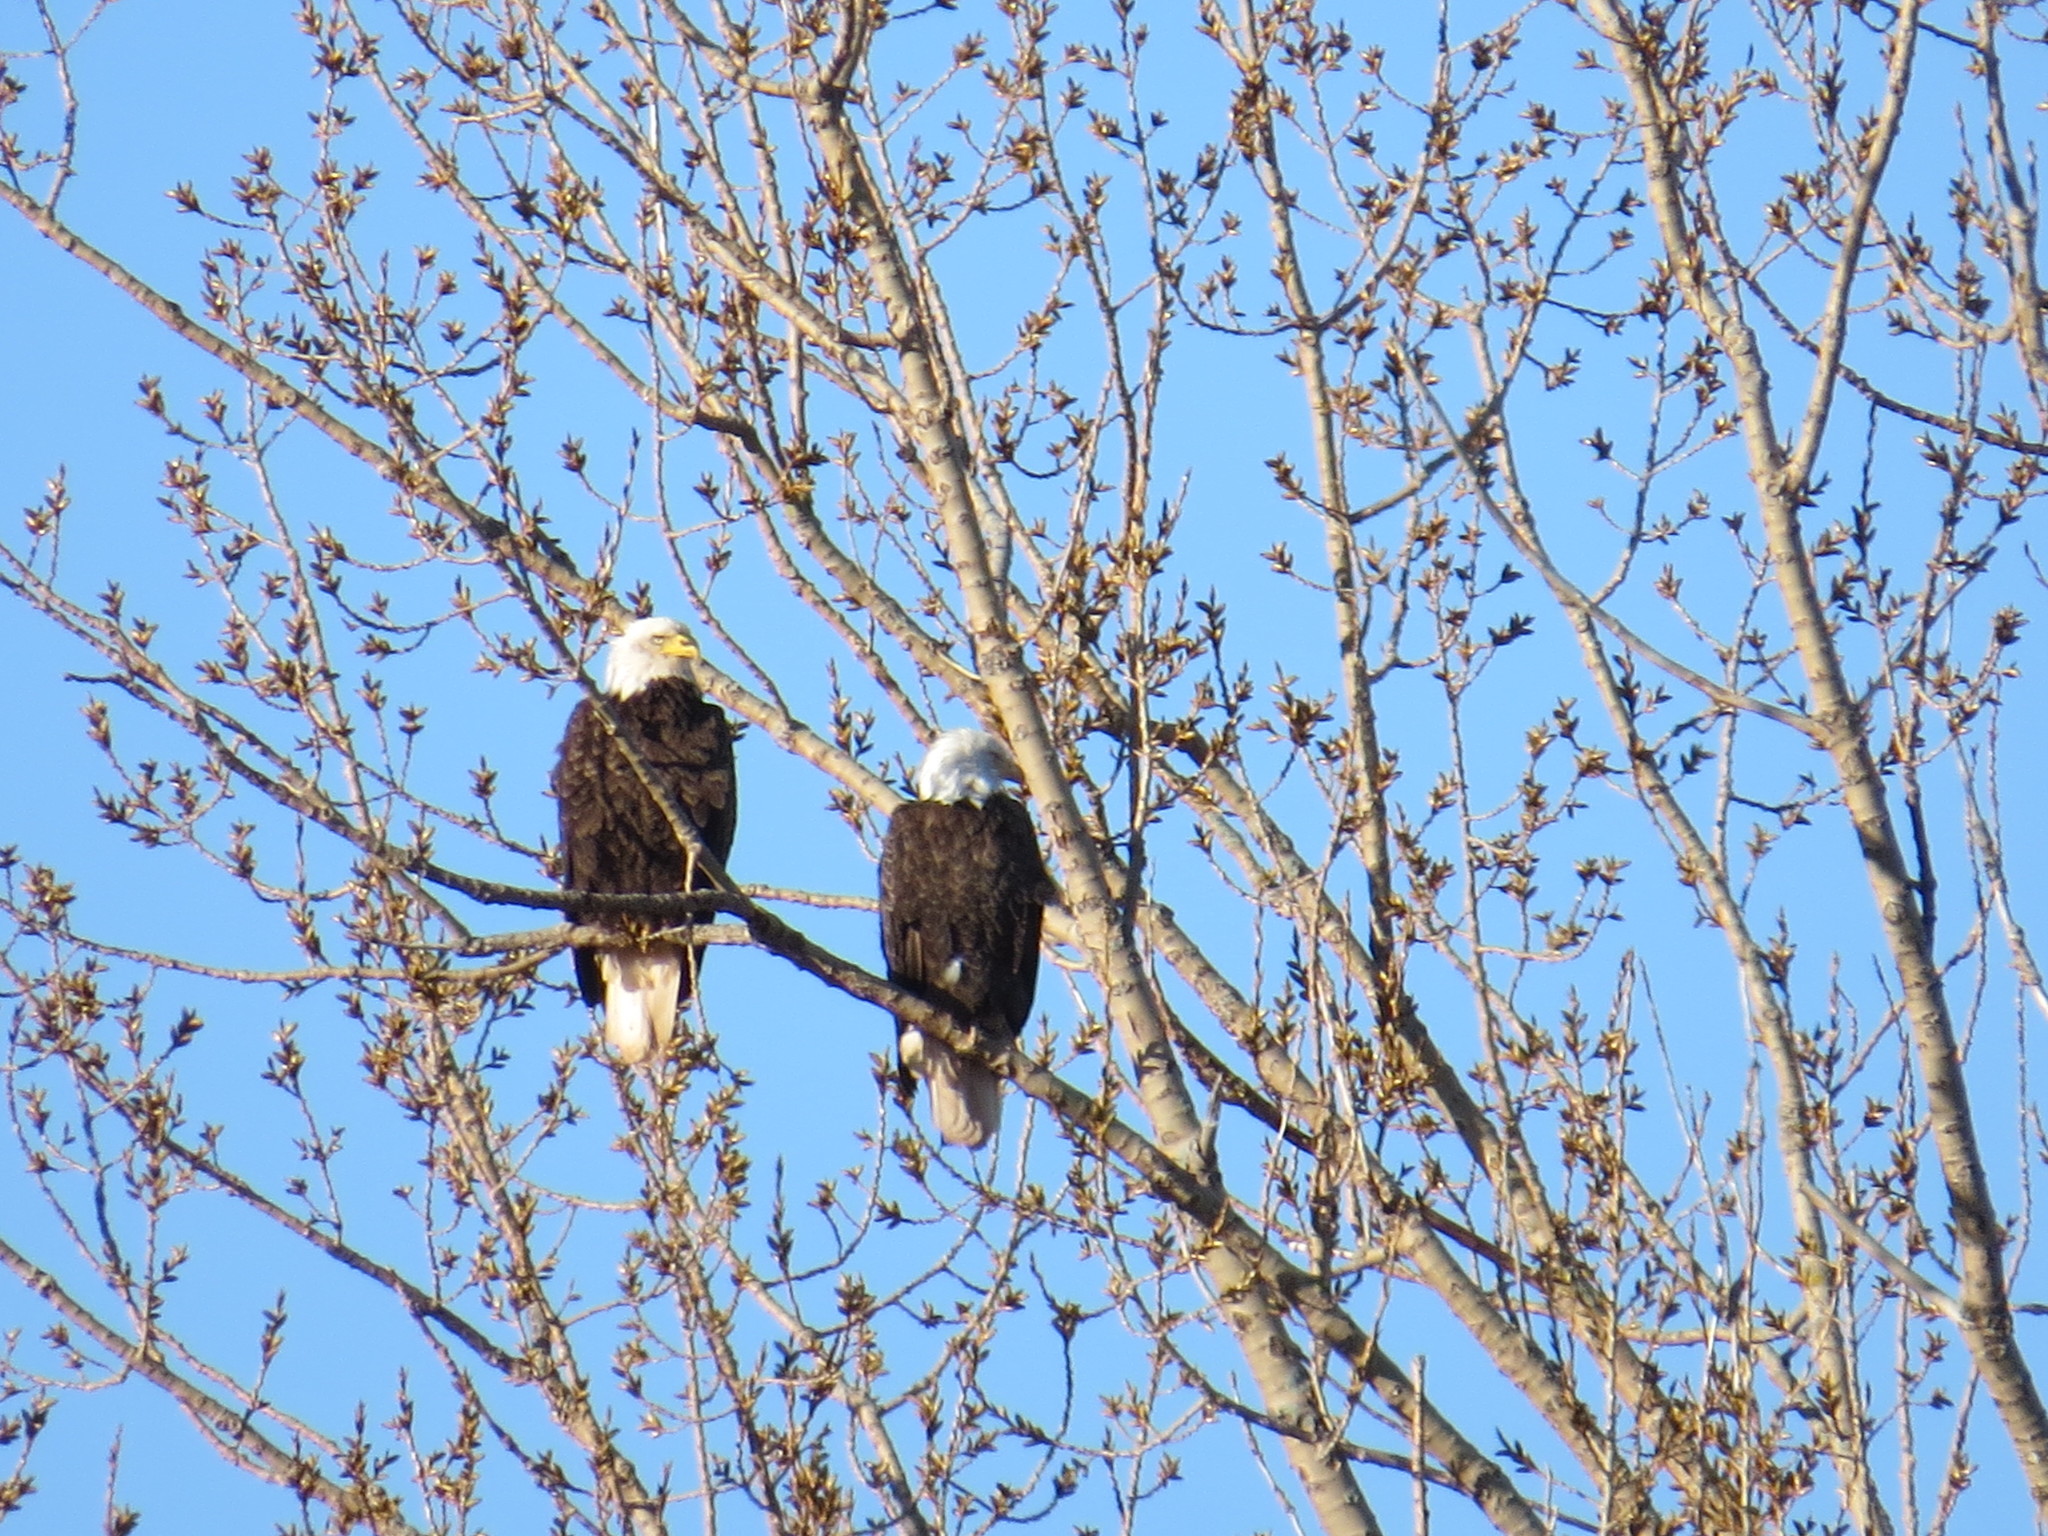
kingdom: Animalia
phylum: Chordata
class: Aves
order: Accipitriformes
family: Accipitridae
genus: Haliaeetus
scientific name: Haliaeetus leucocephalus
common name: Bald eagle
